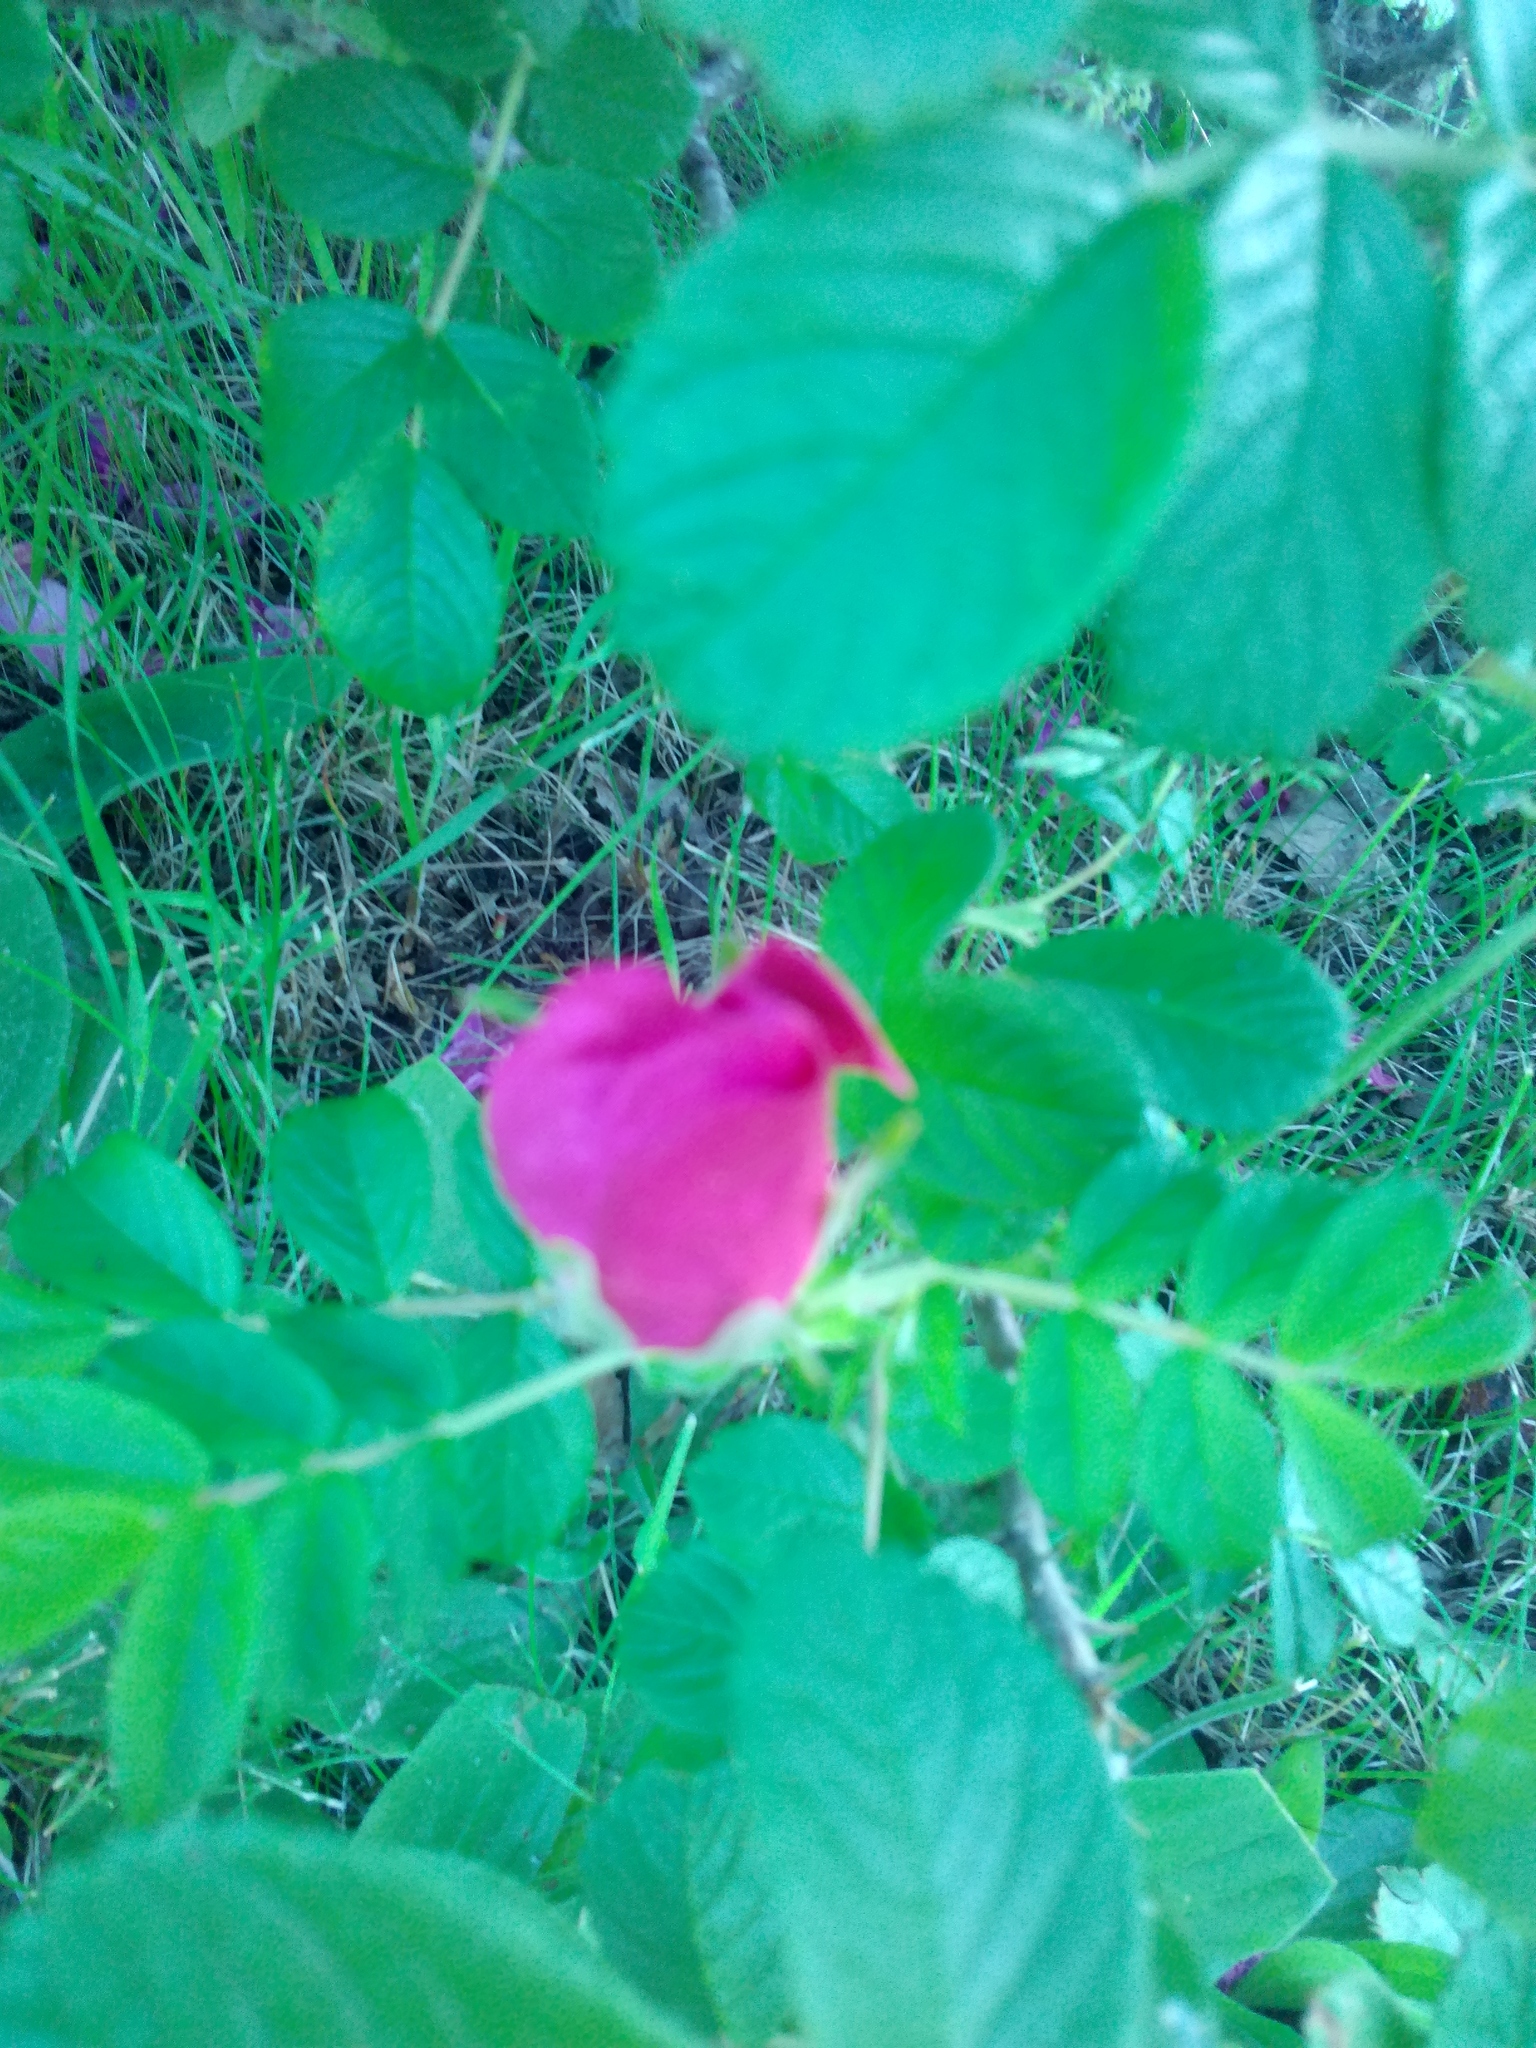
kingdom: Plantae
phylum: Tracheophyta
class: Magnoliopsida
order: Rosales
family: Rosaceae
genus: Rosa
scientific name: Rosa rugosa
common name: Japanese rose
